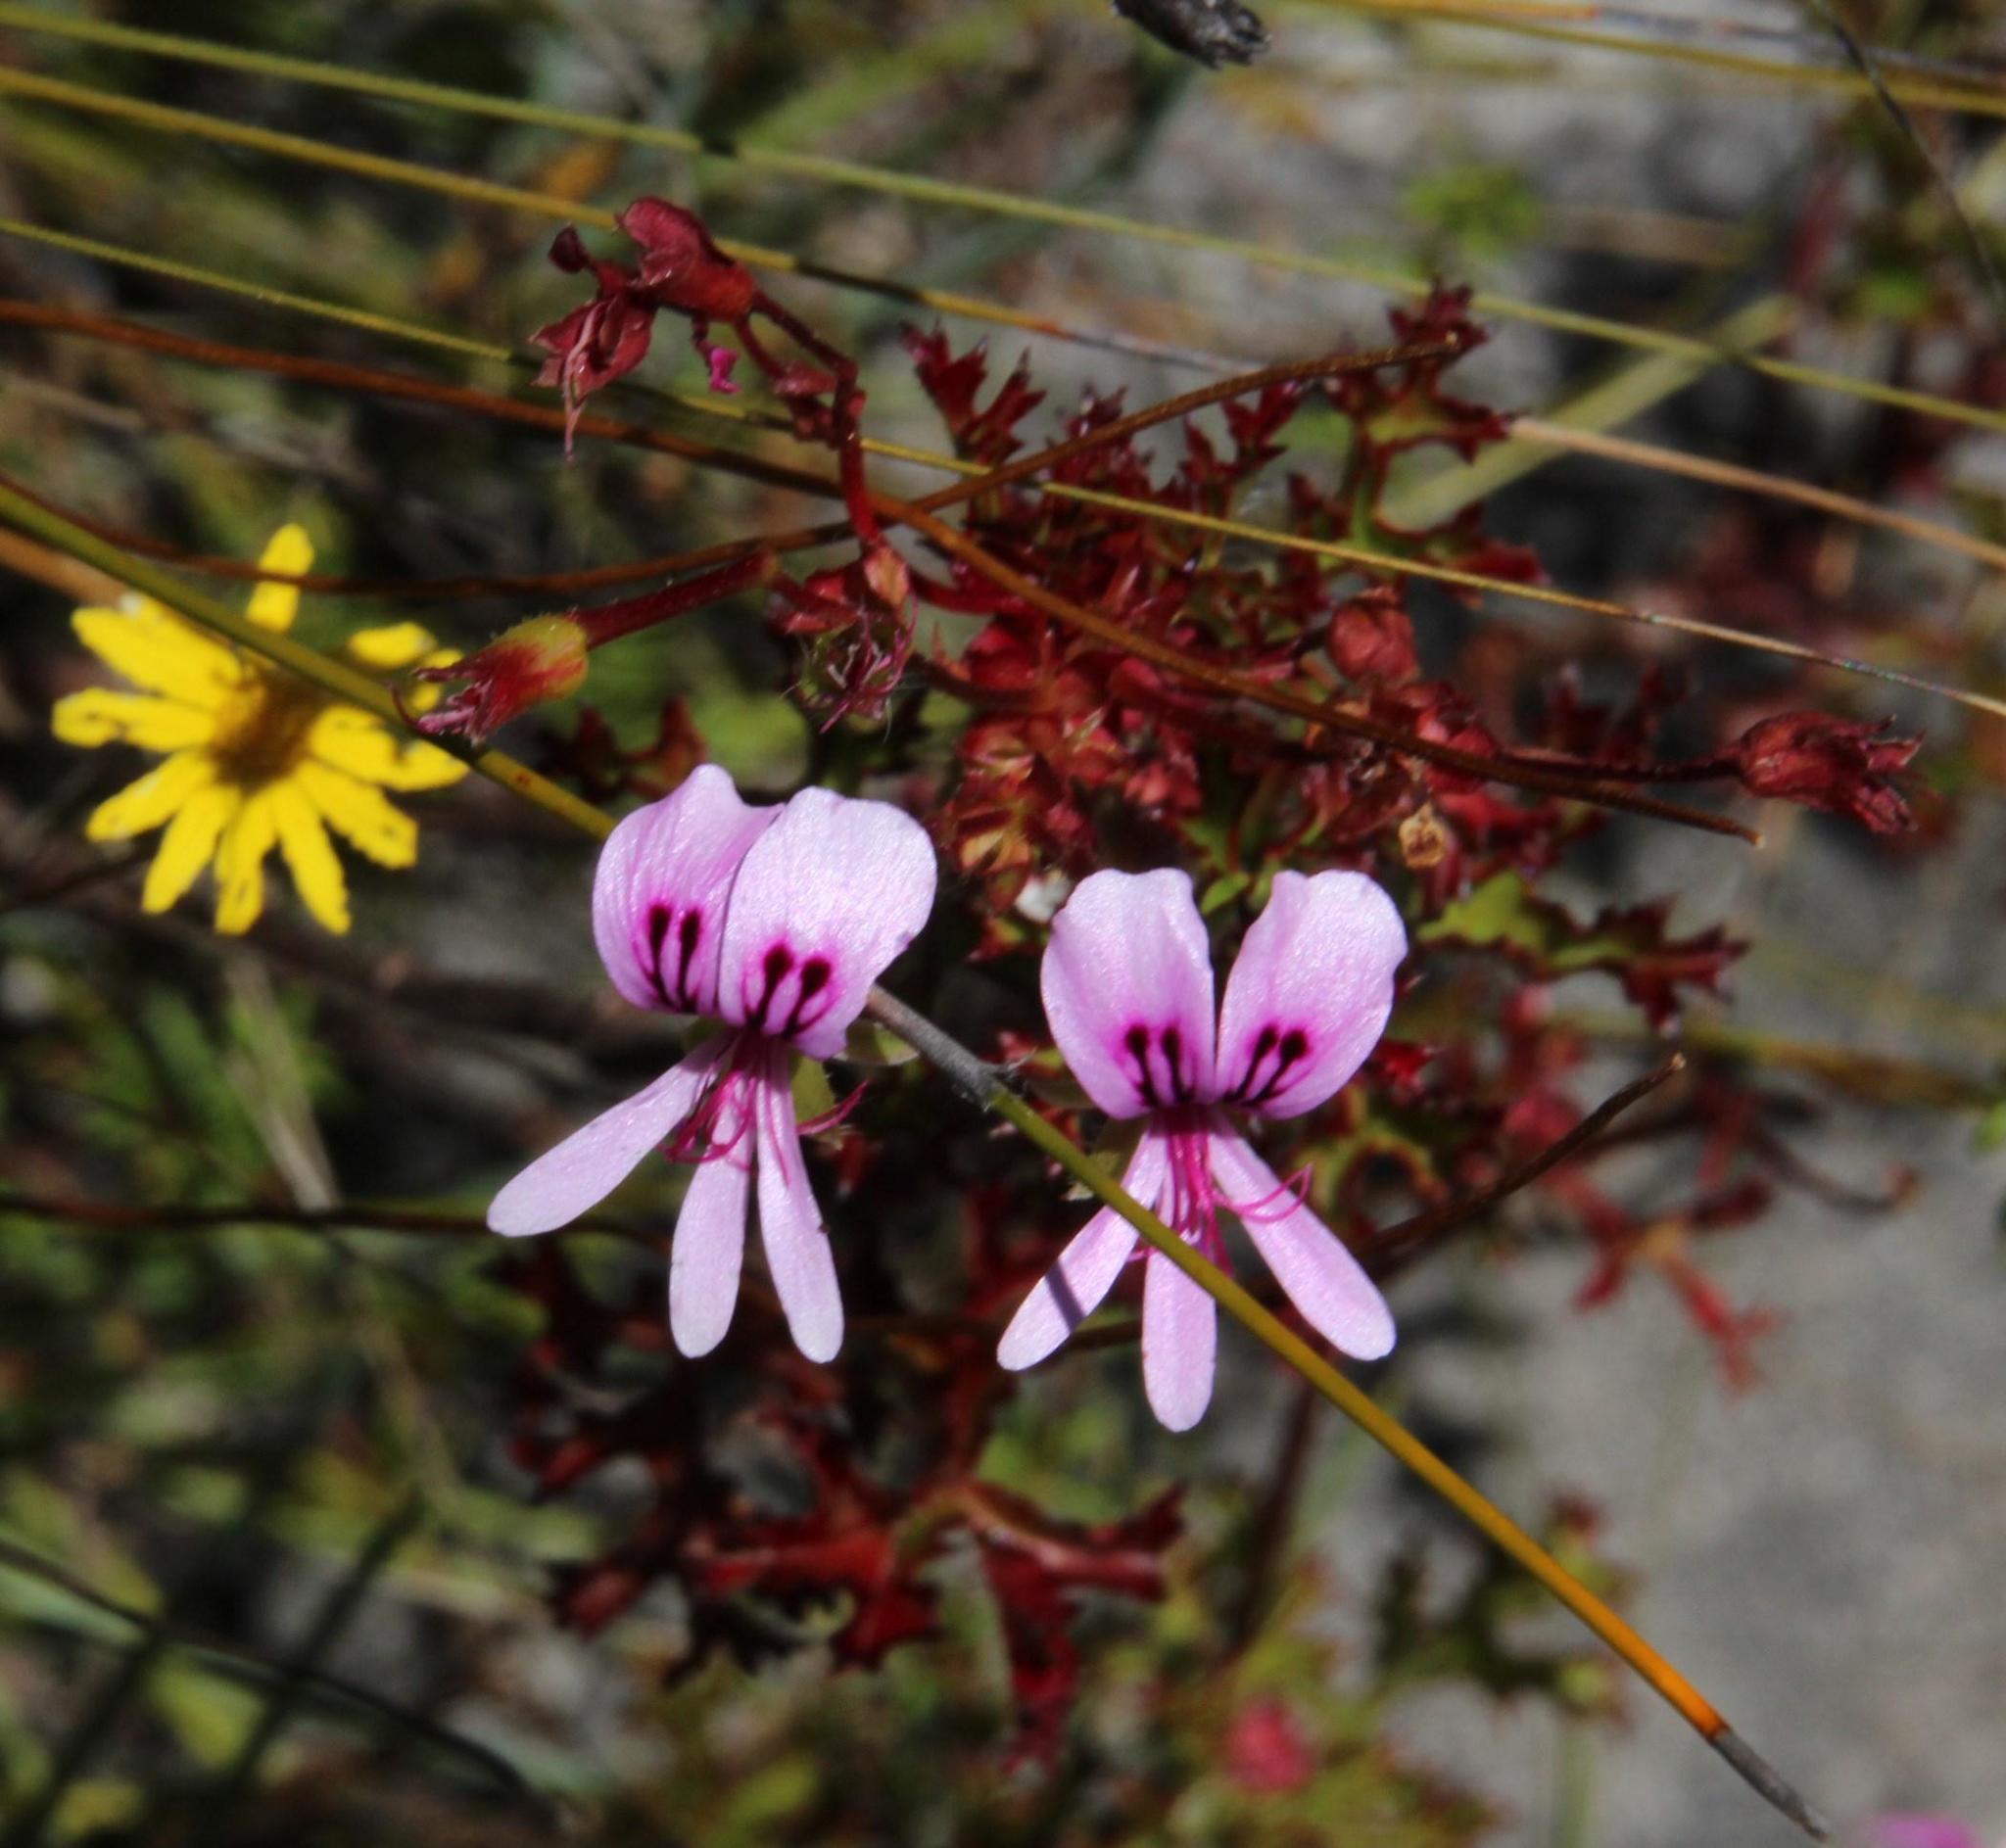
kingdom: Plantae
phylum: Tracheophyta
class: Magnoliopsida
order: Geraniales
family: Geraniaceae
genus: Pelargonium
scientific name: Pelargonium scabroide
